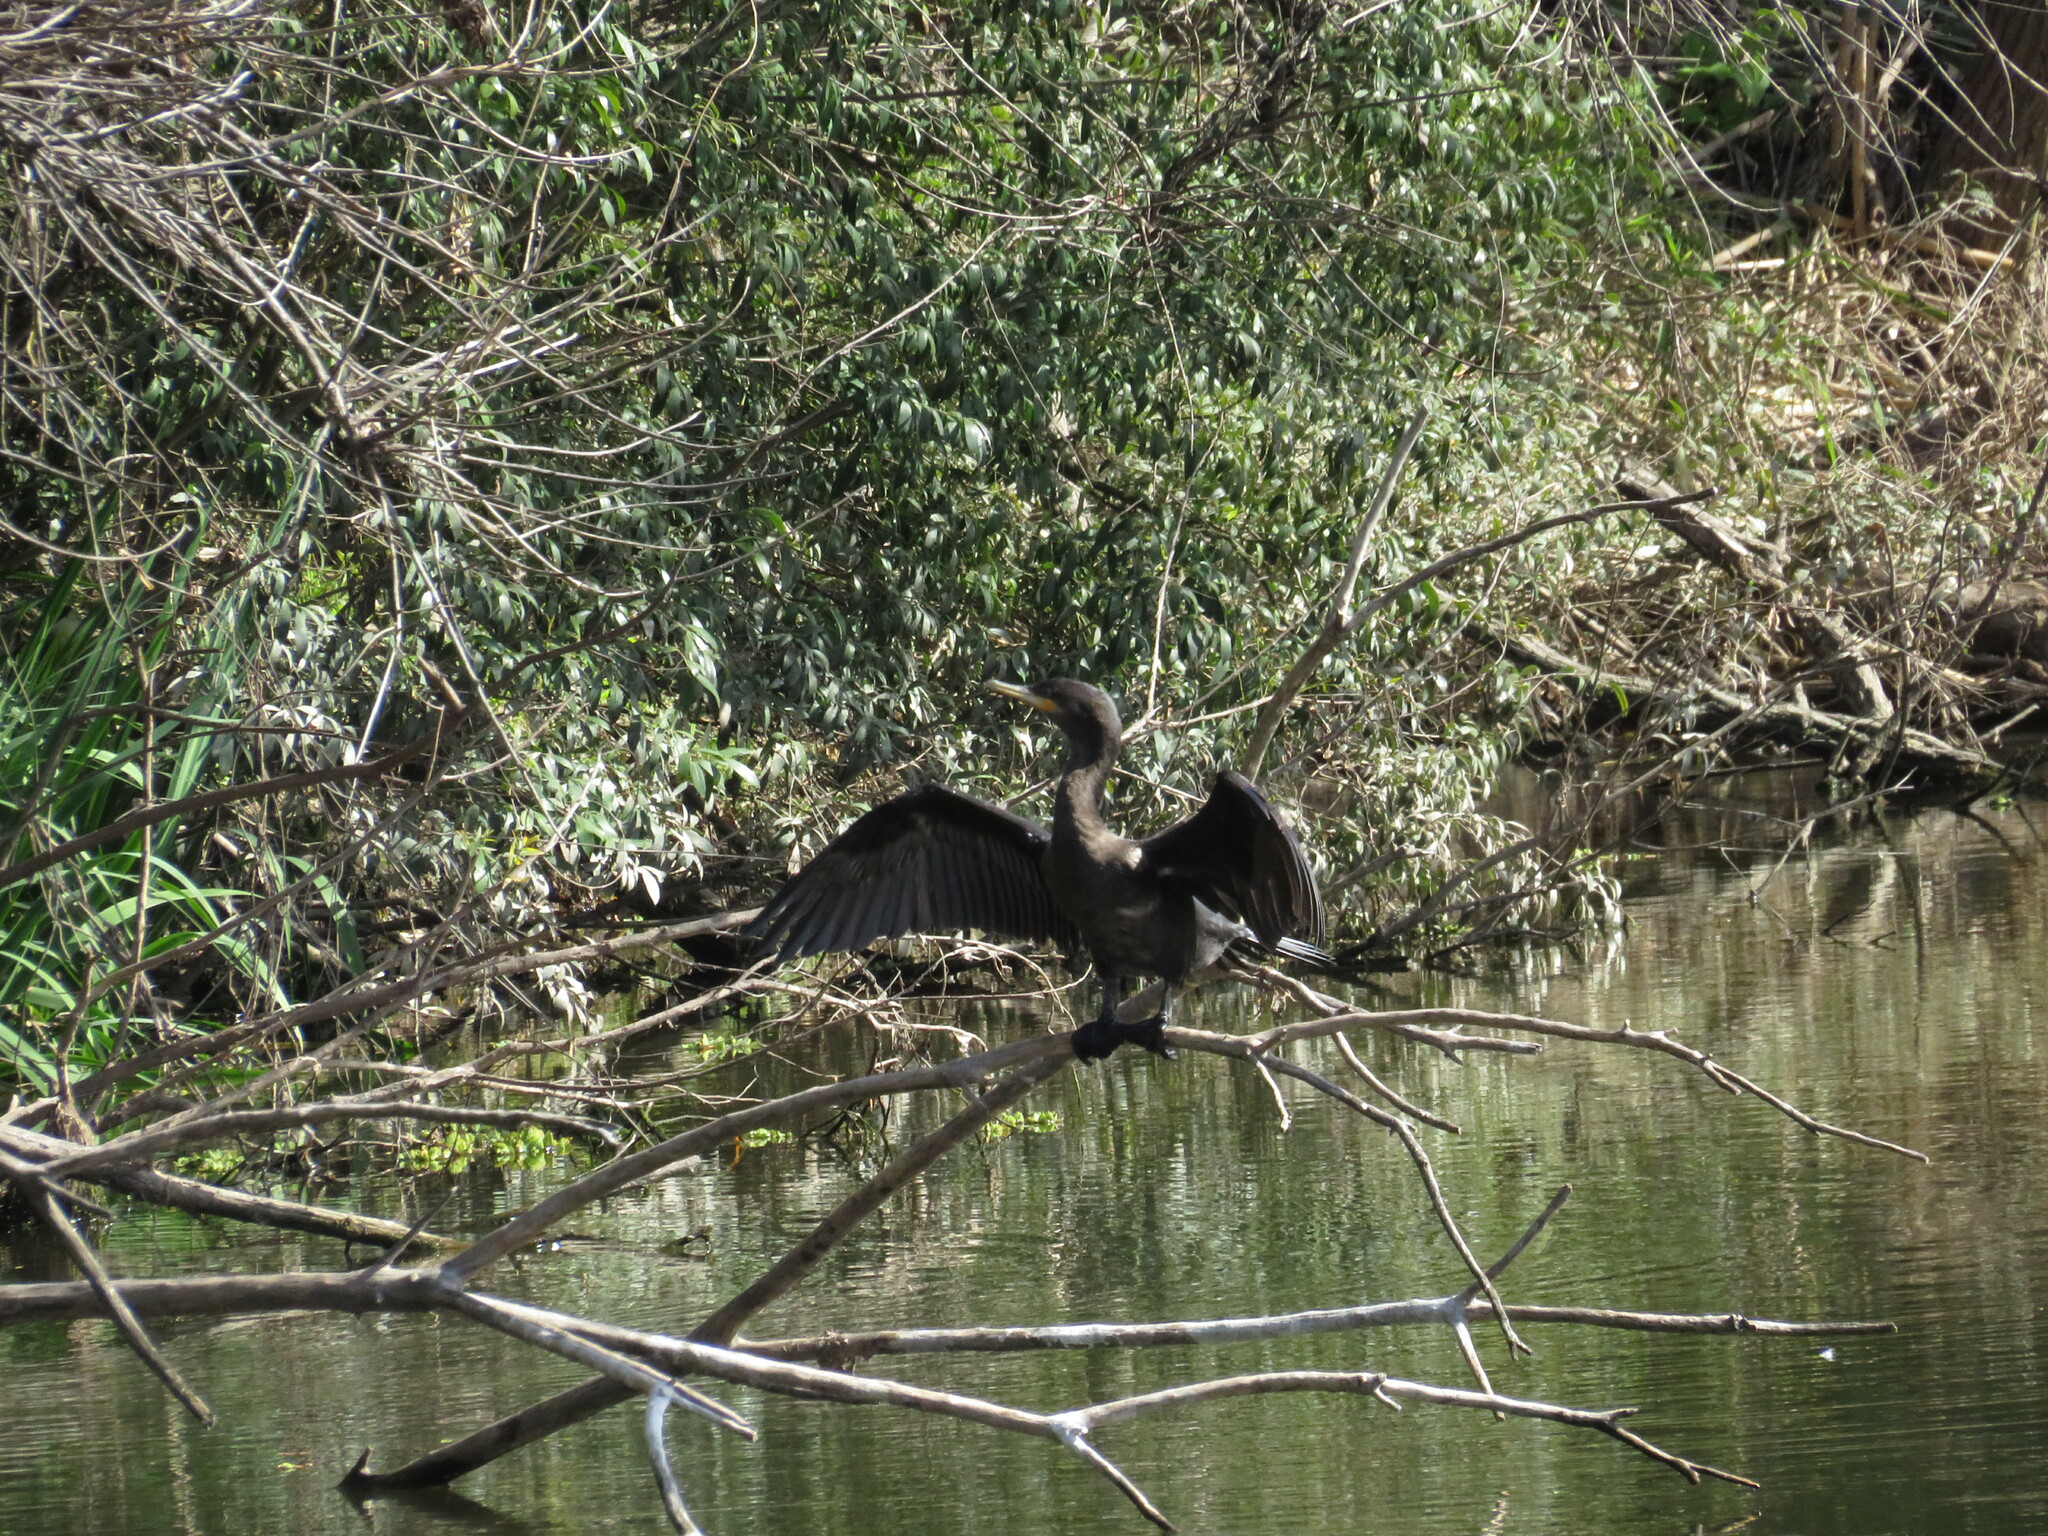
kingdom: Animalia
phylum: Chordata
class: Aves
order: Suliformes
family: Phalacrocoracidae
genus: Phalacrocorax
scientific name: Phalacrocorax brasilianus
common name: Neotropic cormorant
